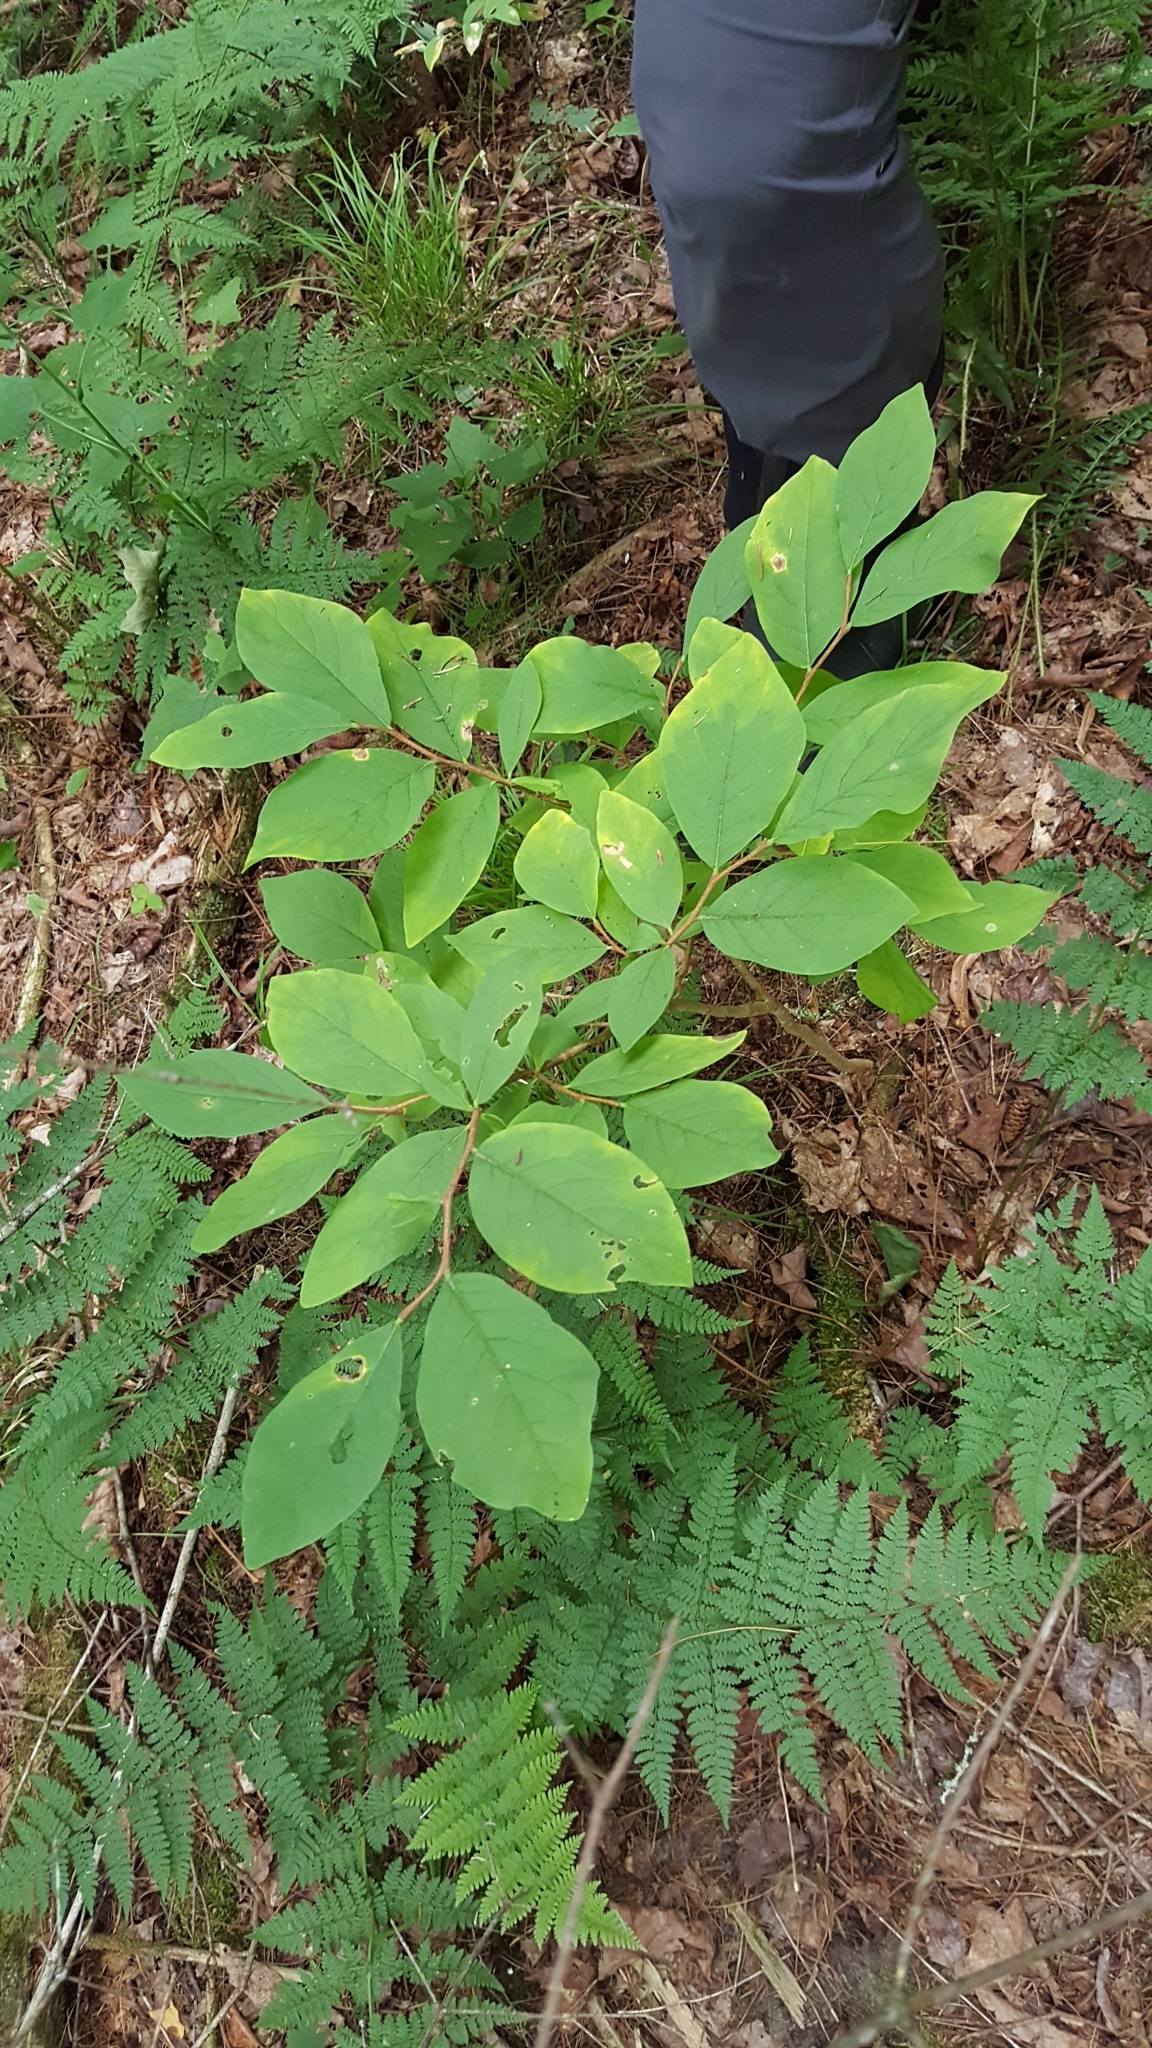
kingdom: Plantae
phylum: Tracheophyta
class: Magnoliopsida
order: Malvales
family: Thymelaeaceae
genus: Dirca
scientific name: Dirca palustris
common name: Leatherwood
